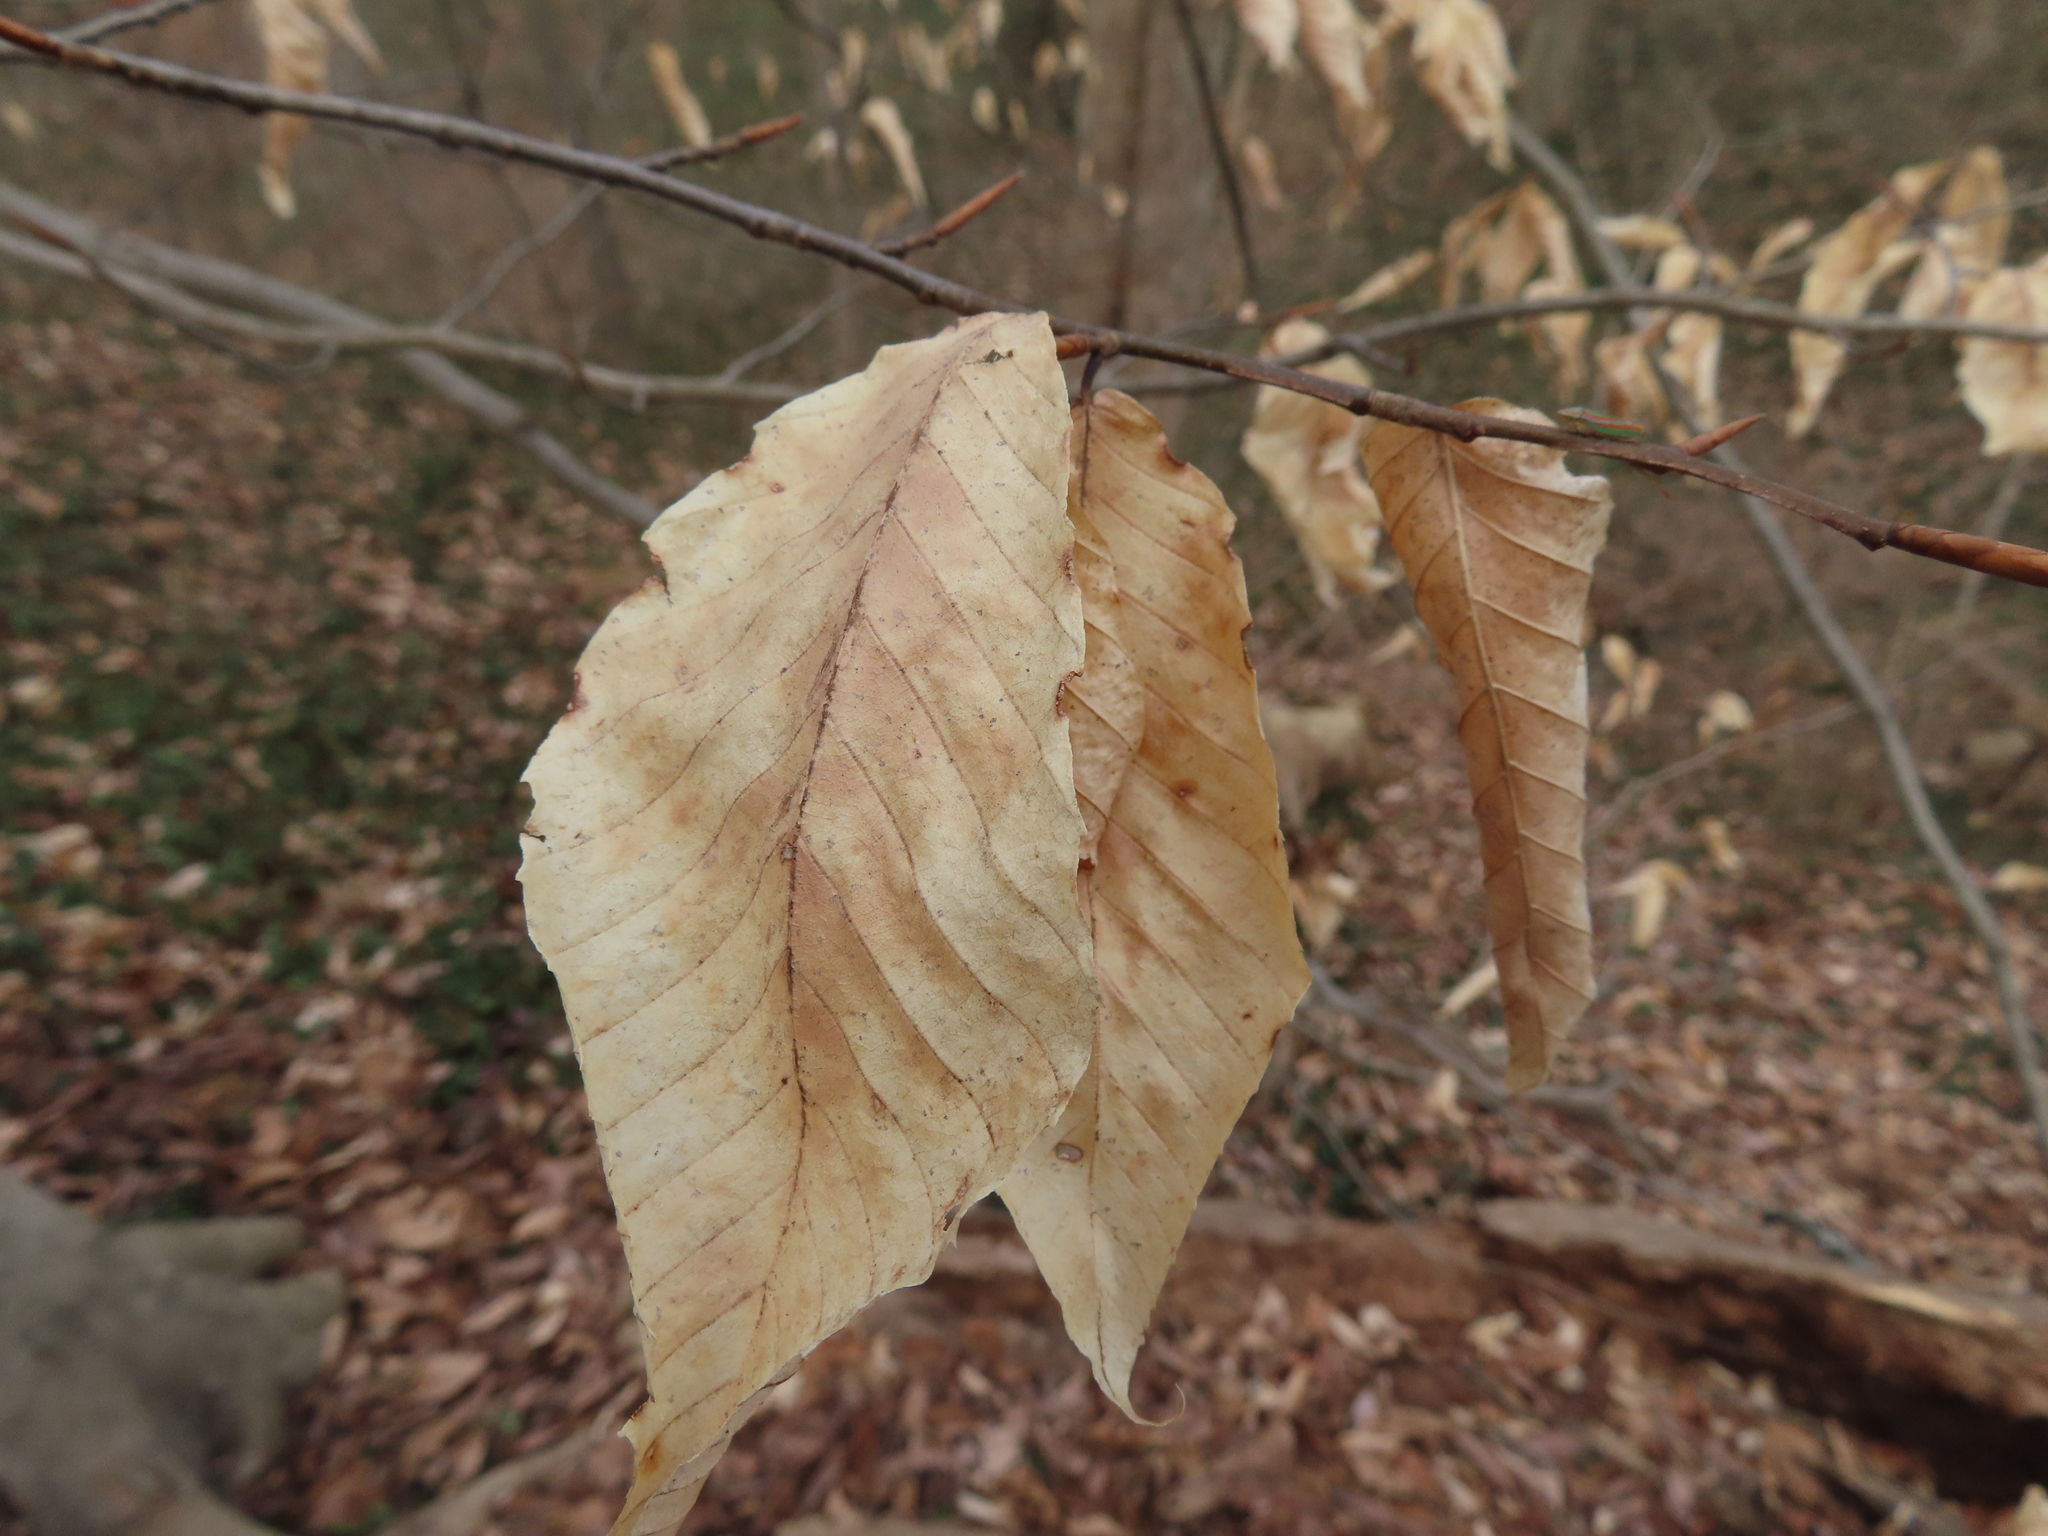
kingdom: Plantae
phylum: Tracheophyta
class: Magnoliopsida
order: Fagales
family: Fagaceae
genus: Fagus
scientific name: Fagus grandifolia
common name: American beech
